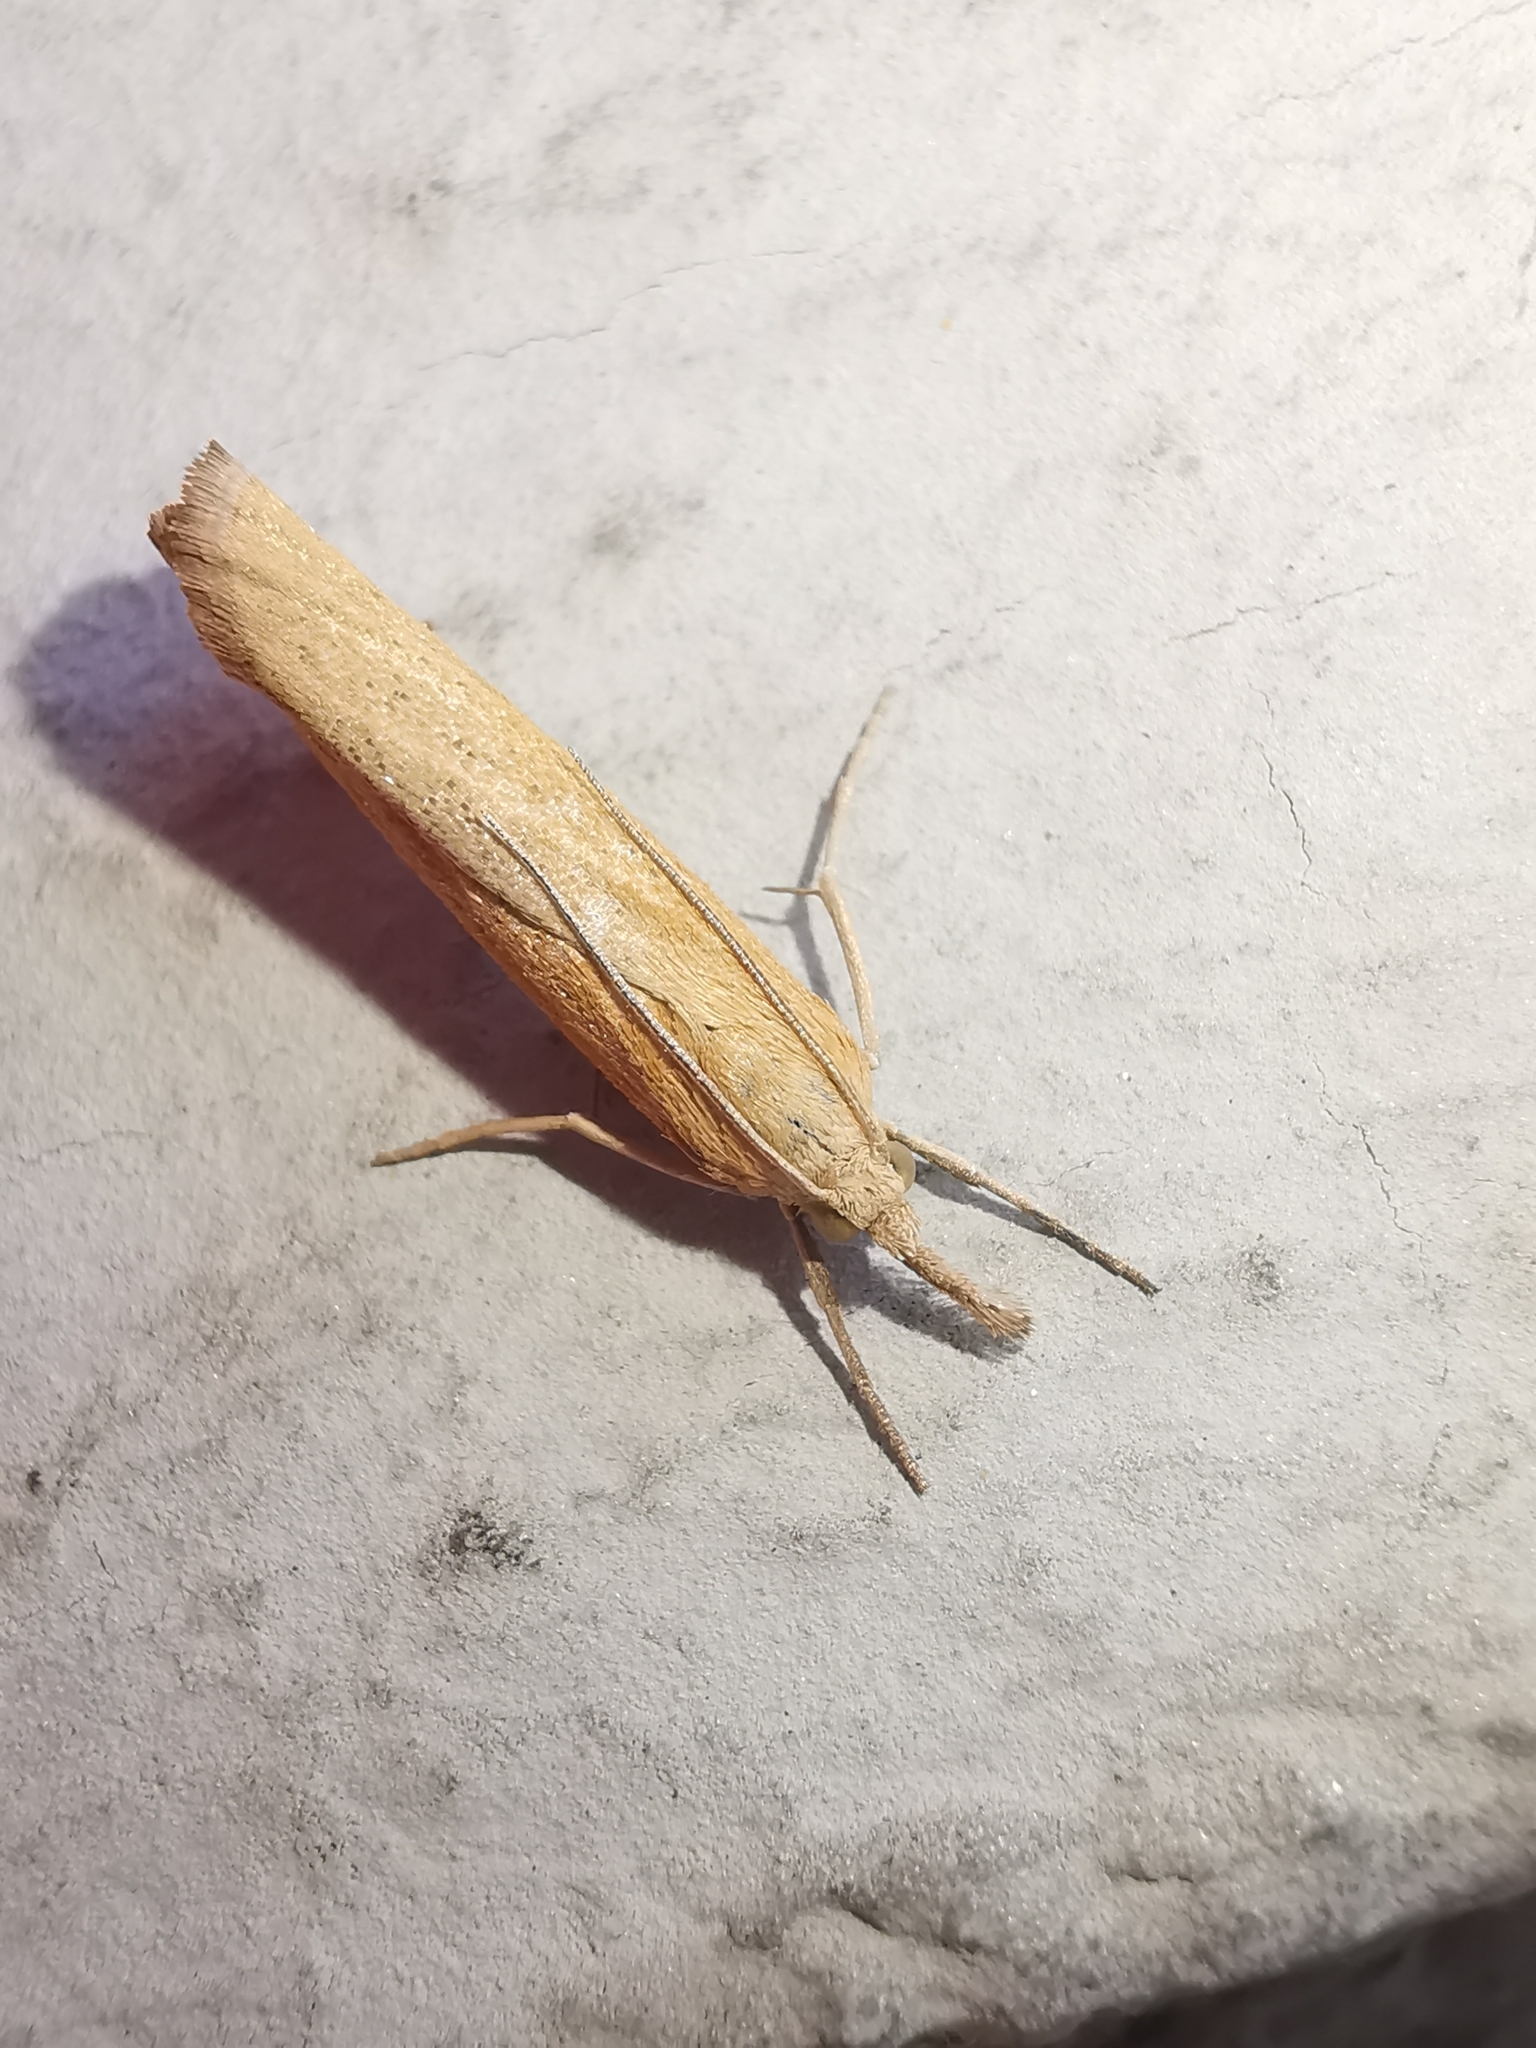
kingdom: Animalia
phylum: Arthropoda
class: Insecta
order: Lepidoptera
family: Crambidae
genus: Pediasia
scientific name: Pediasia luteella
